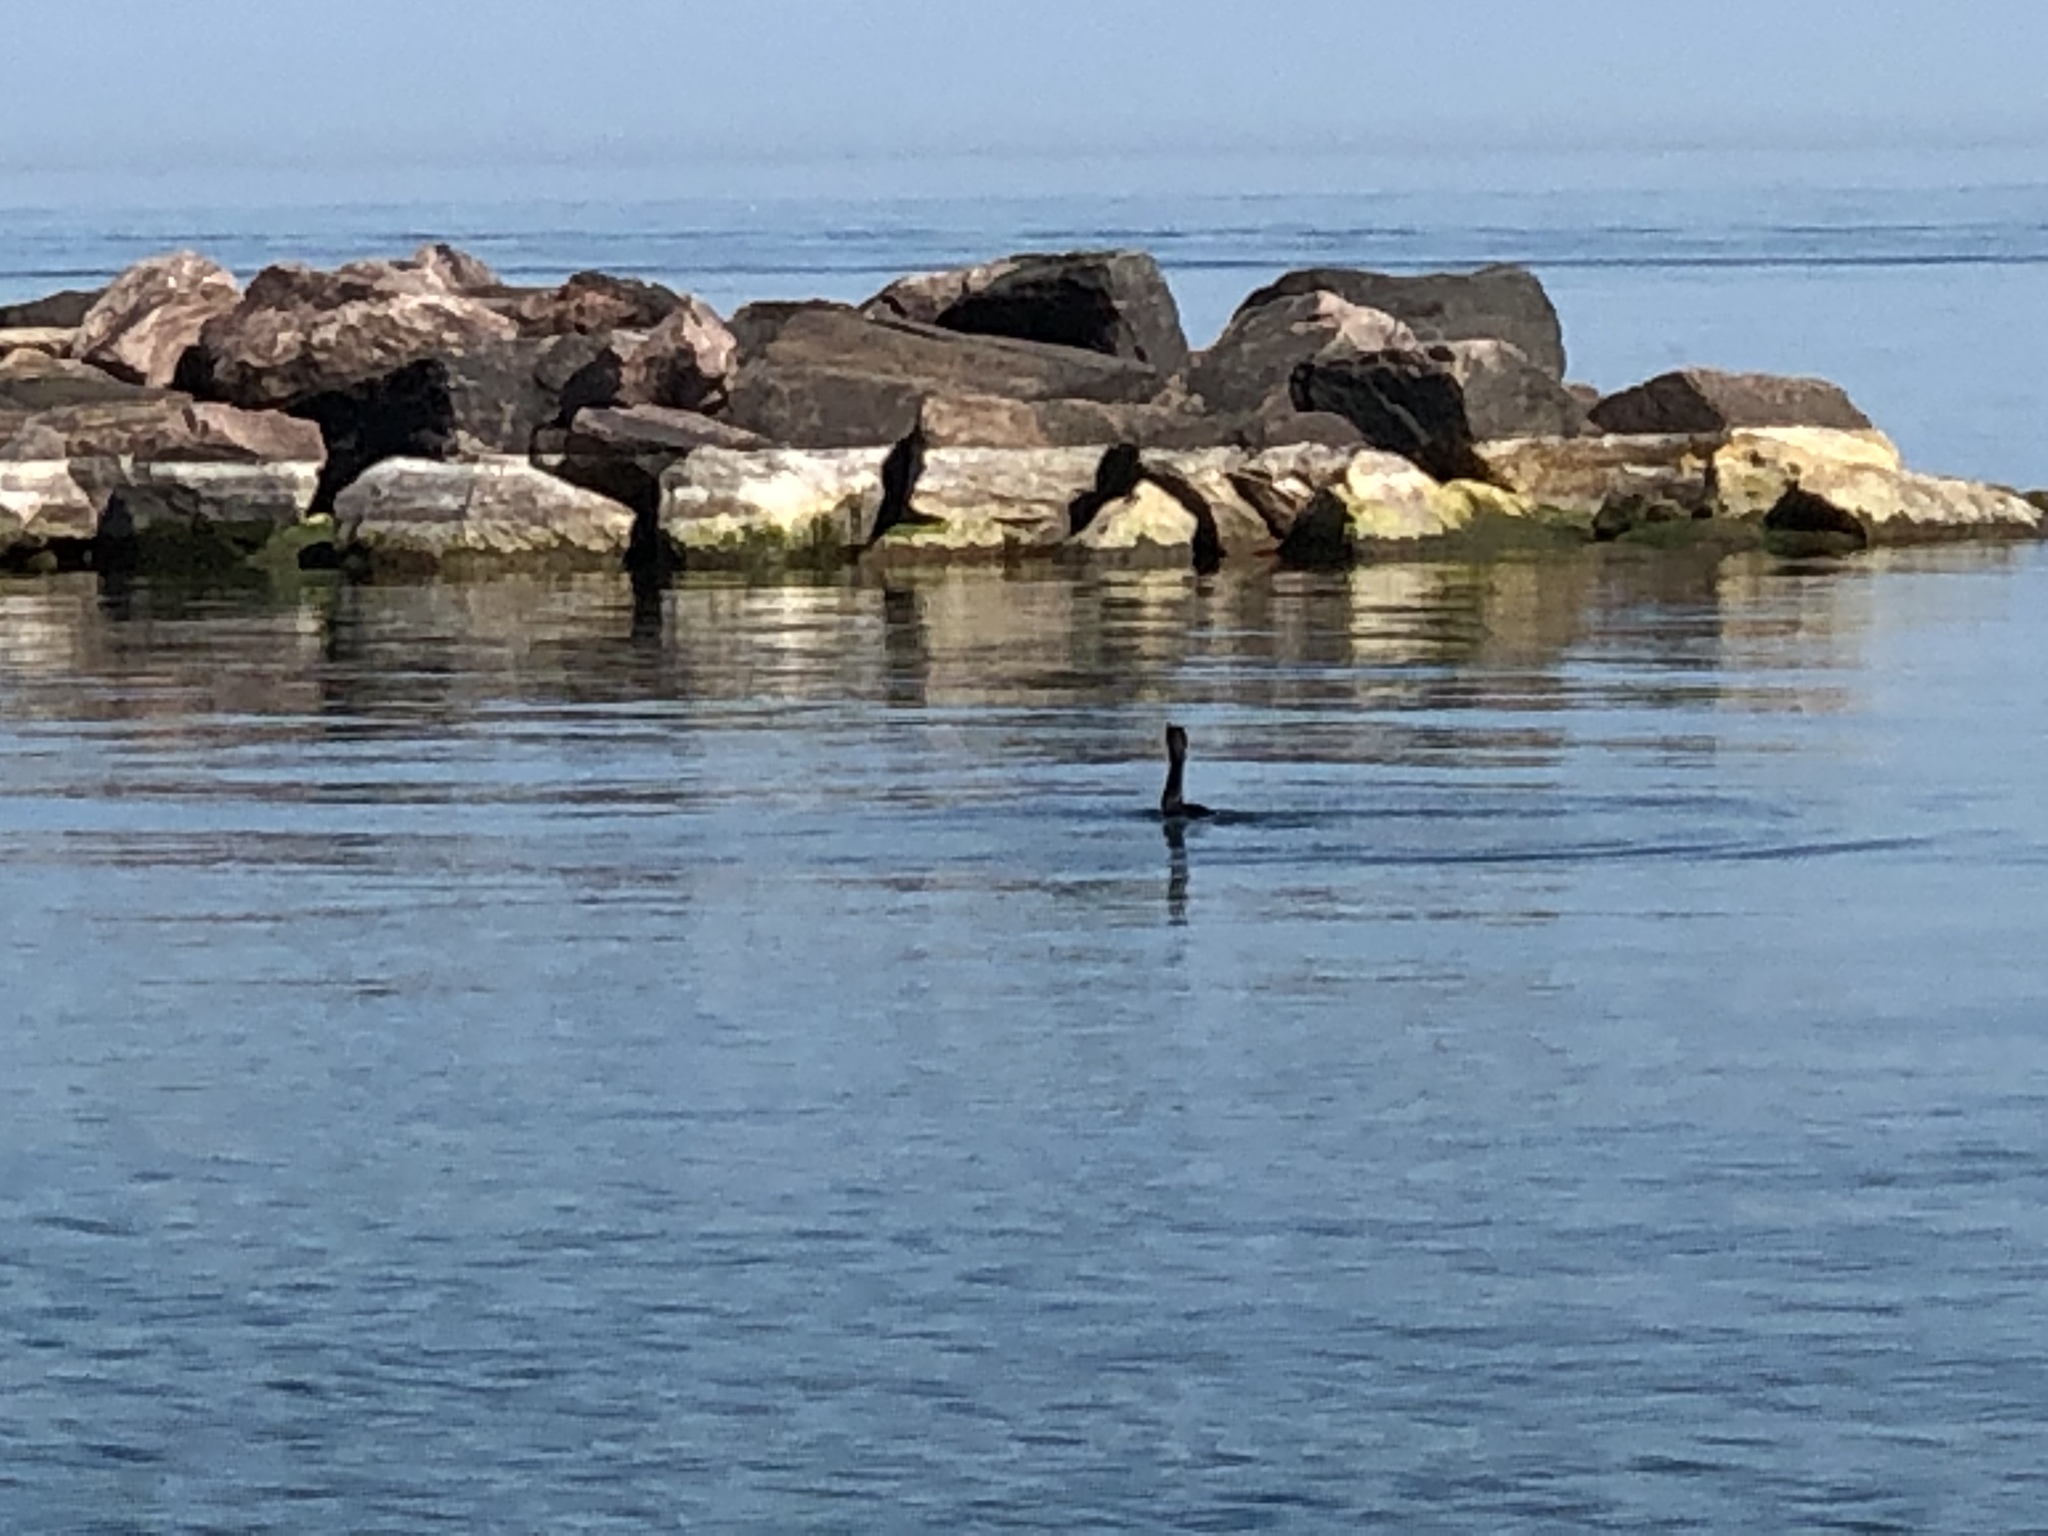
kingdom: Animalia
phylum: Chordata
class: Aves
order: Suliformes
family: Phalacrocoracidae
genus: Phalacrocorax
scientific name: Phalacrocorax auritus
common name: Double-crested cormorant
